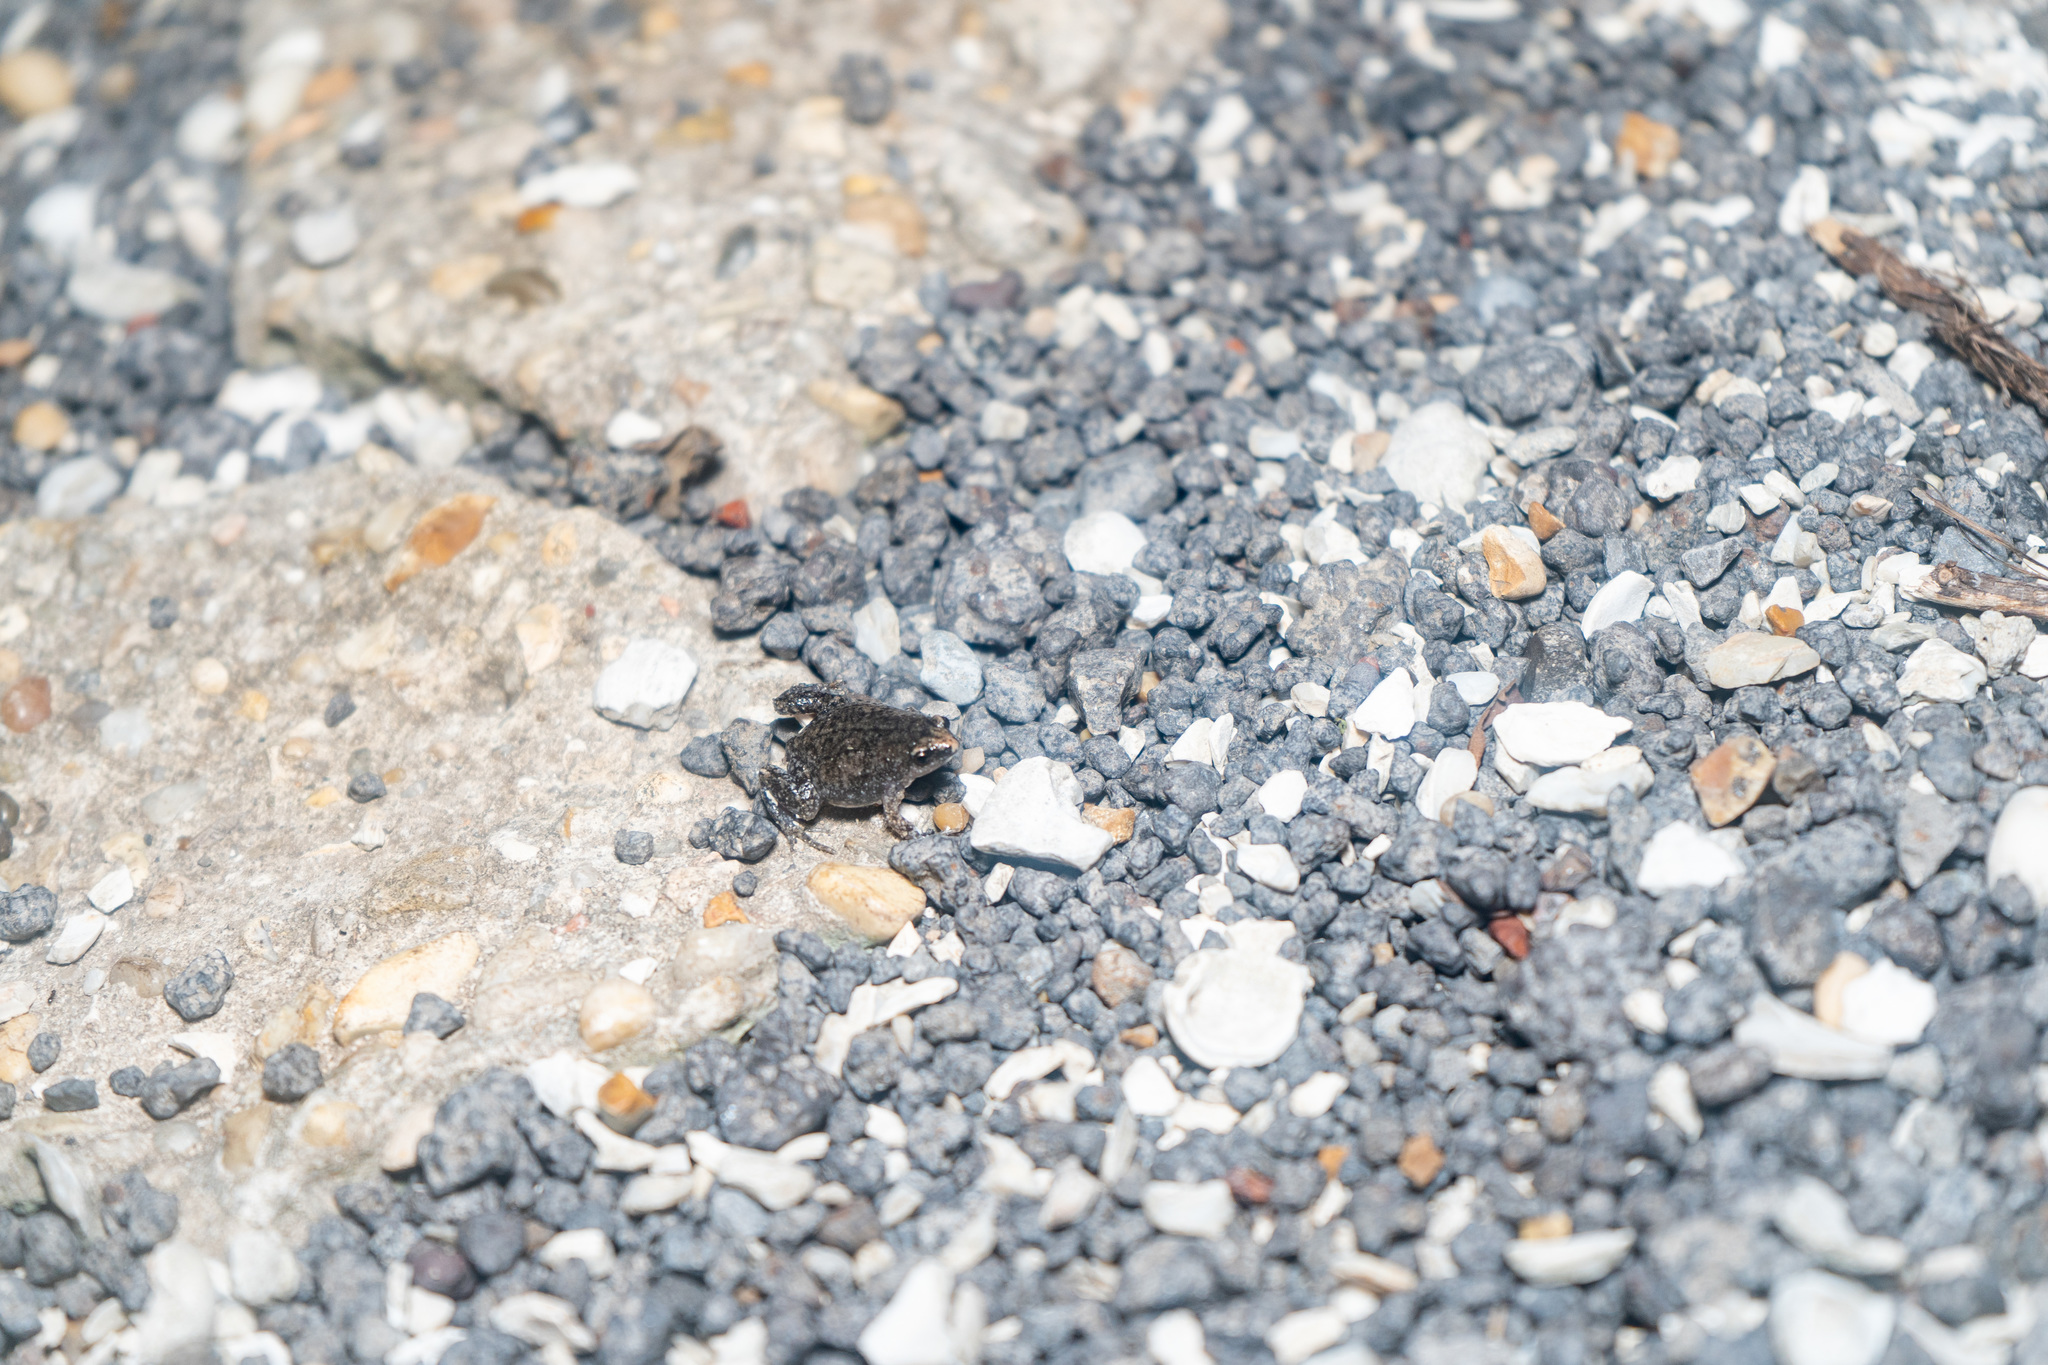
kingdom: Animalia
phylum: Chordata
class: Amphibia
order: Anura
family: Microhylidae
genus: Gastrophryne
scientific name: Gastrophryne carolinensis
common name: Eastern narrowmouth toad
